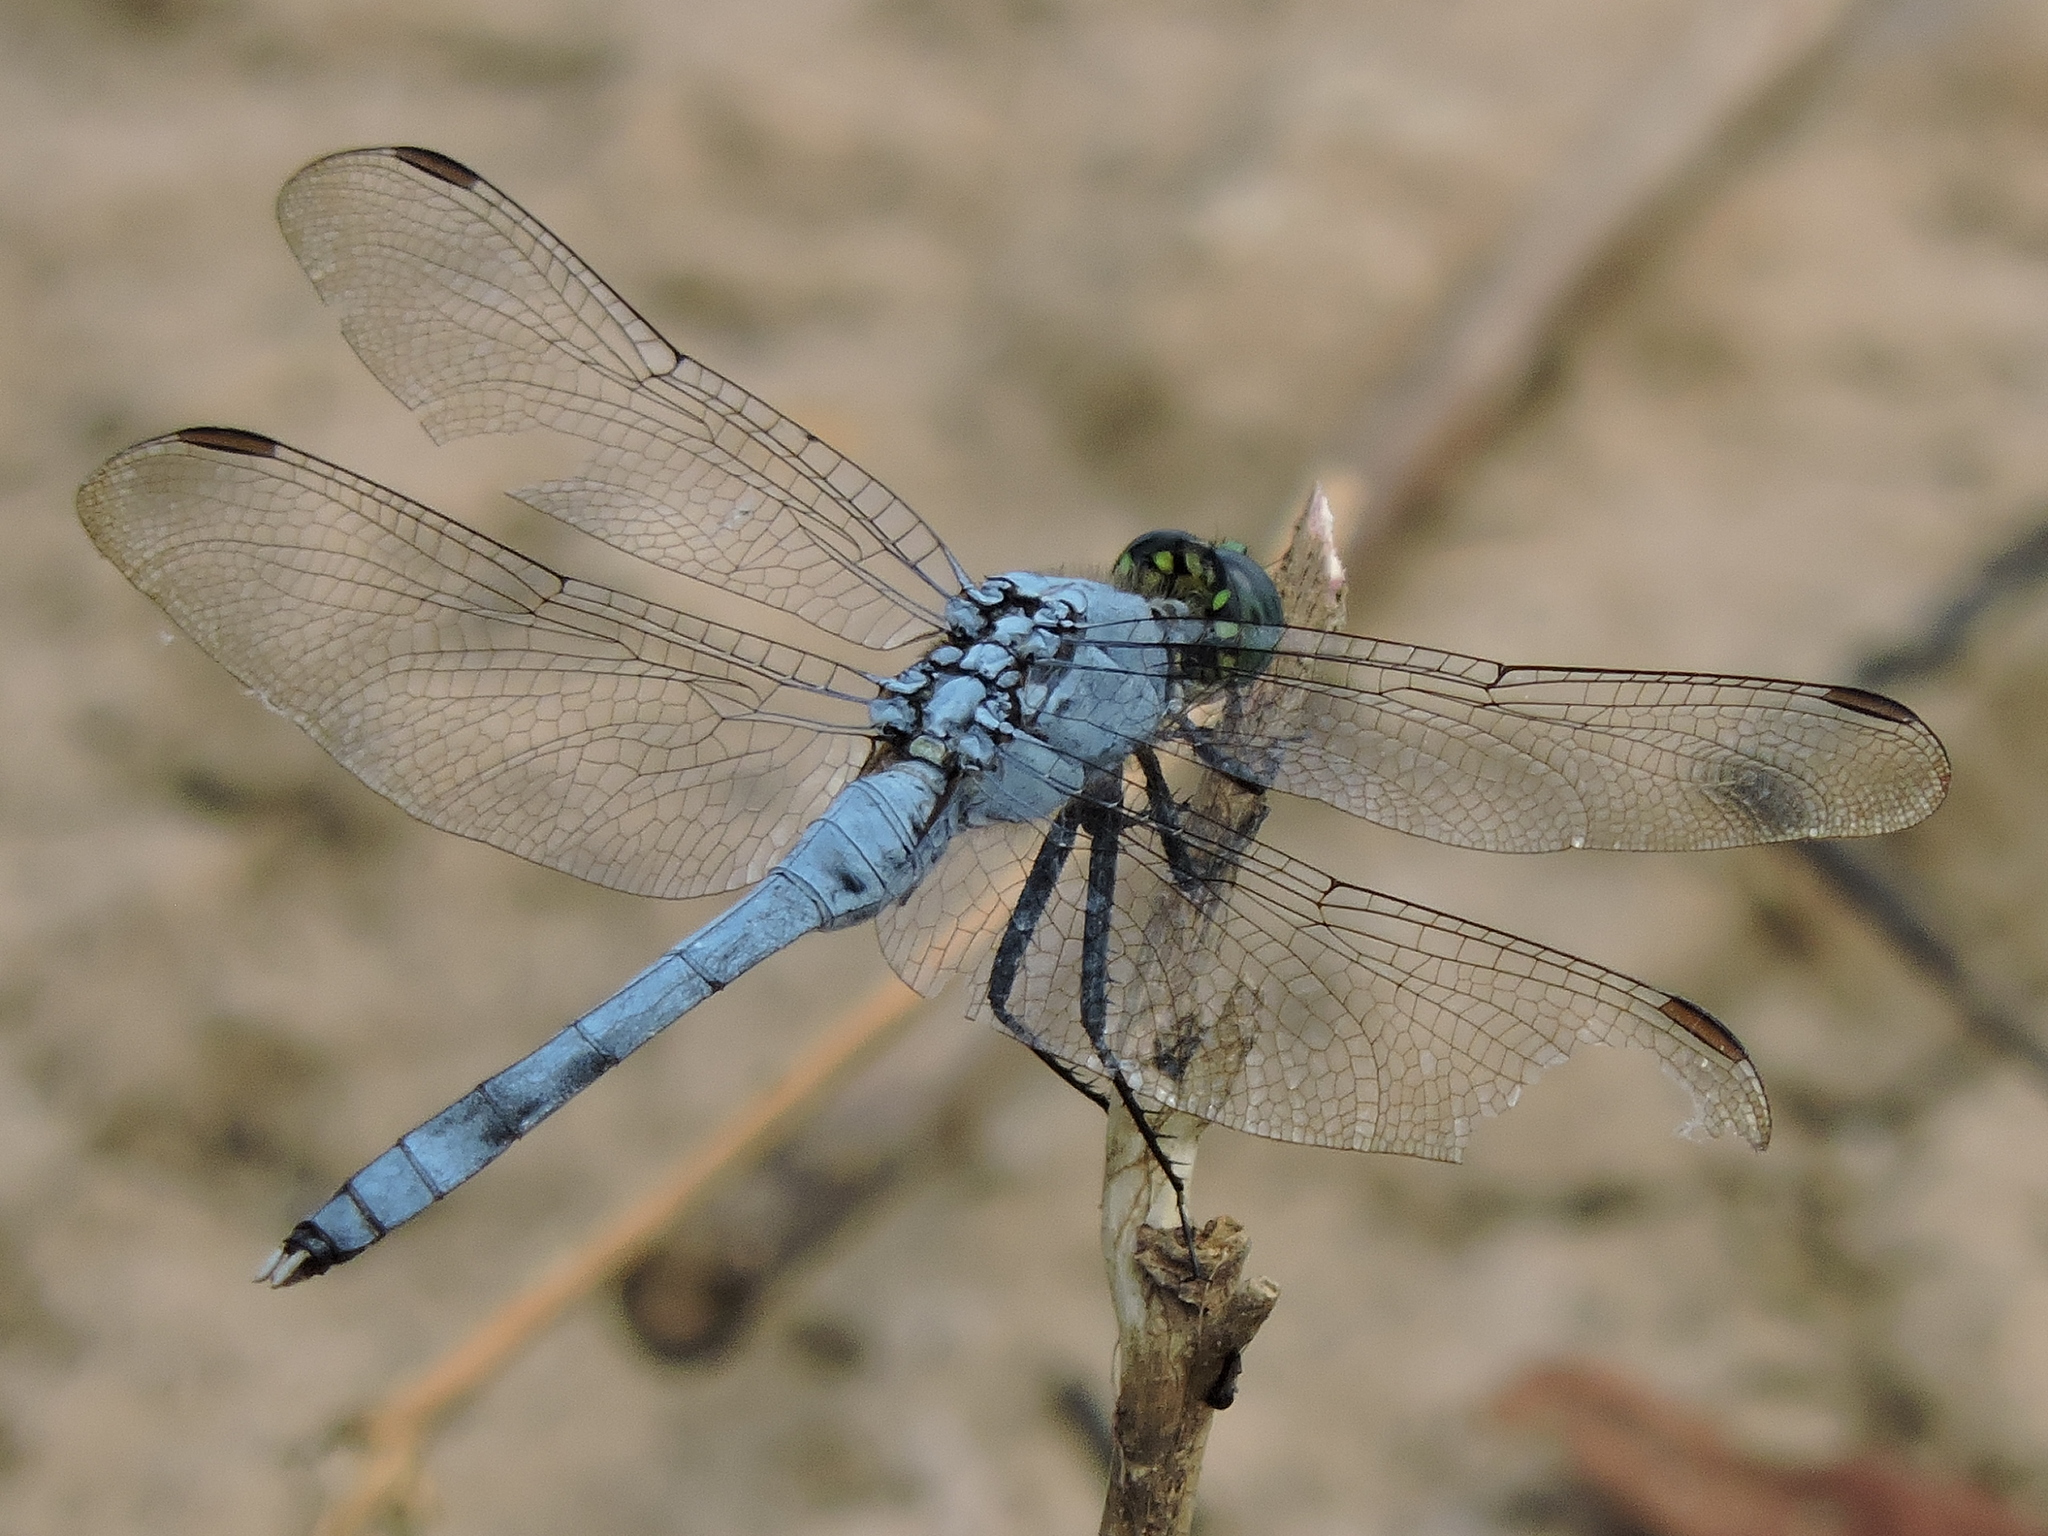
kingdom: Animalia
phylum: Arthropoda
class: Insecta
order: Odonata
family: Libellulidae
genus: Erythemis
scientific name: Erythemis simplicicollis
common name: Eastern pondhawk
